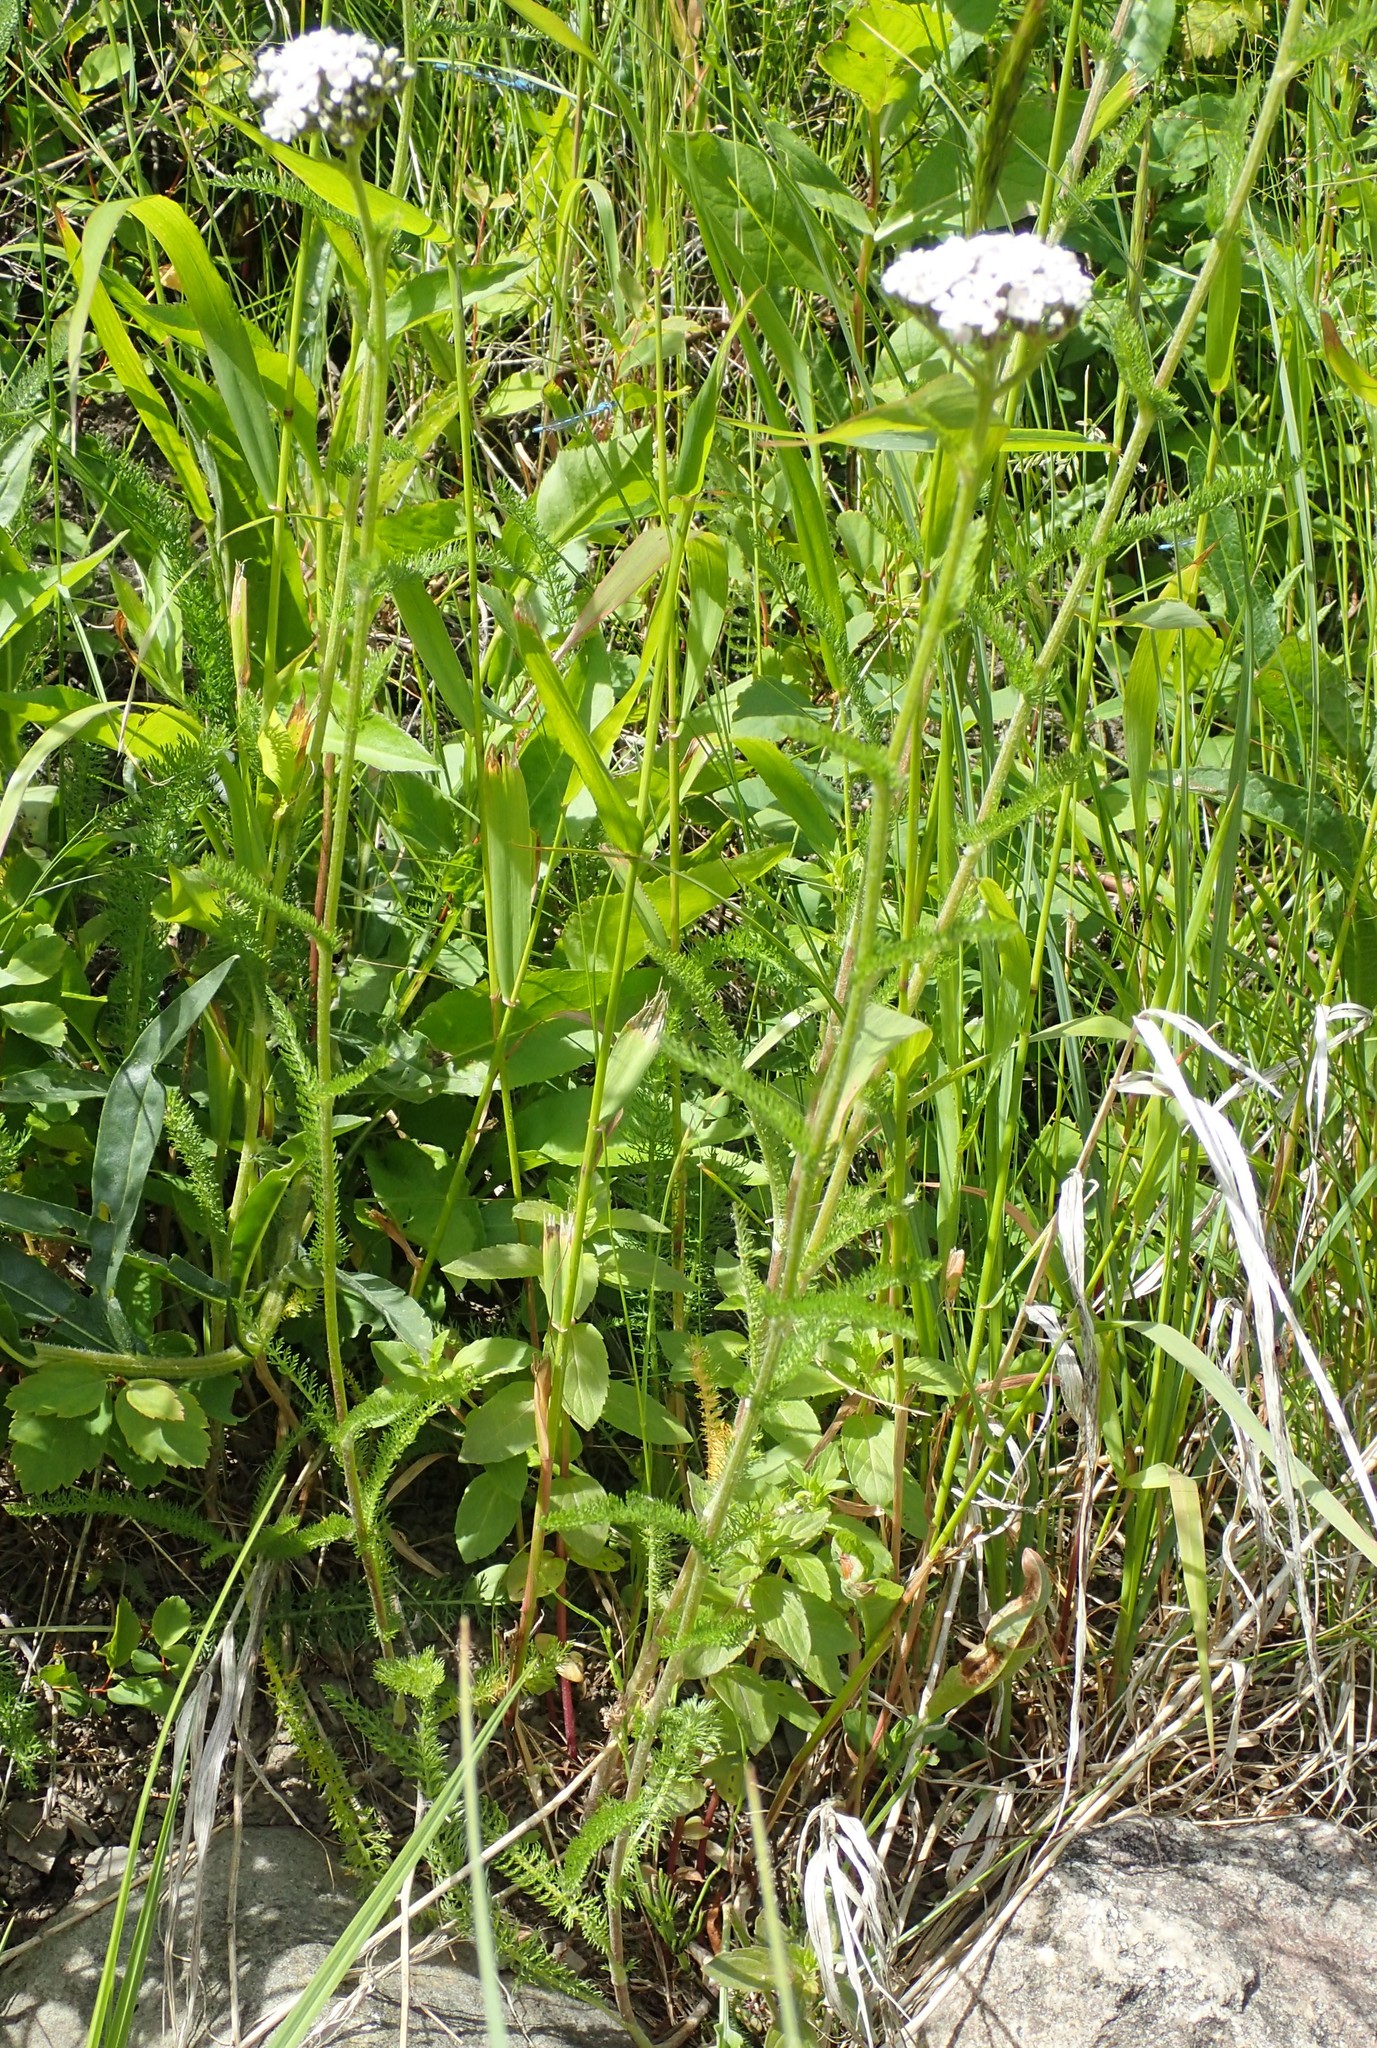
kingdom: Plantae
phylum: Tracheophyta
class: Magnoliopsida
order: Asterales
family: Asteraceae
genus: Achillea
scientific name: Achillea millefolium
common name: Yarrow
